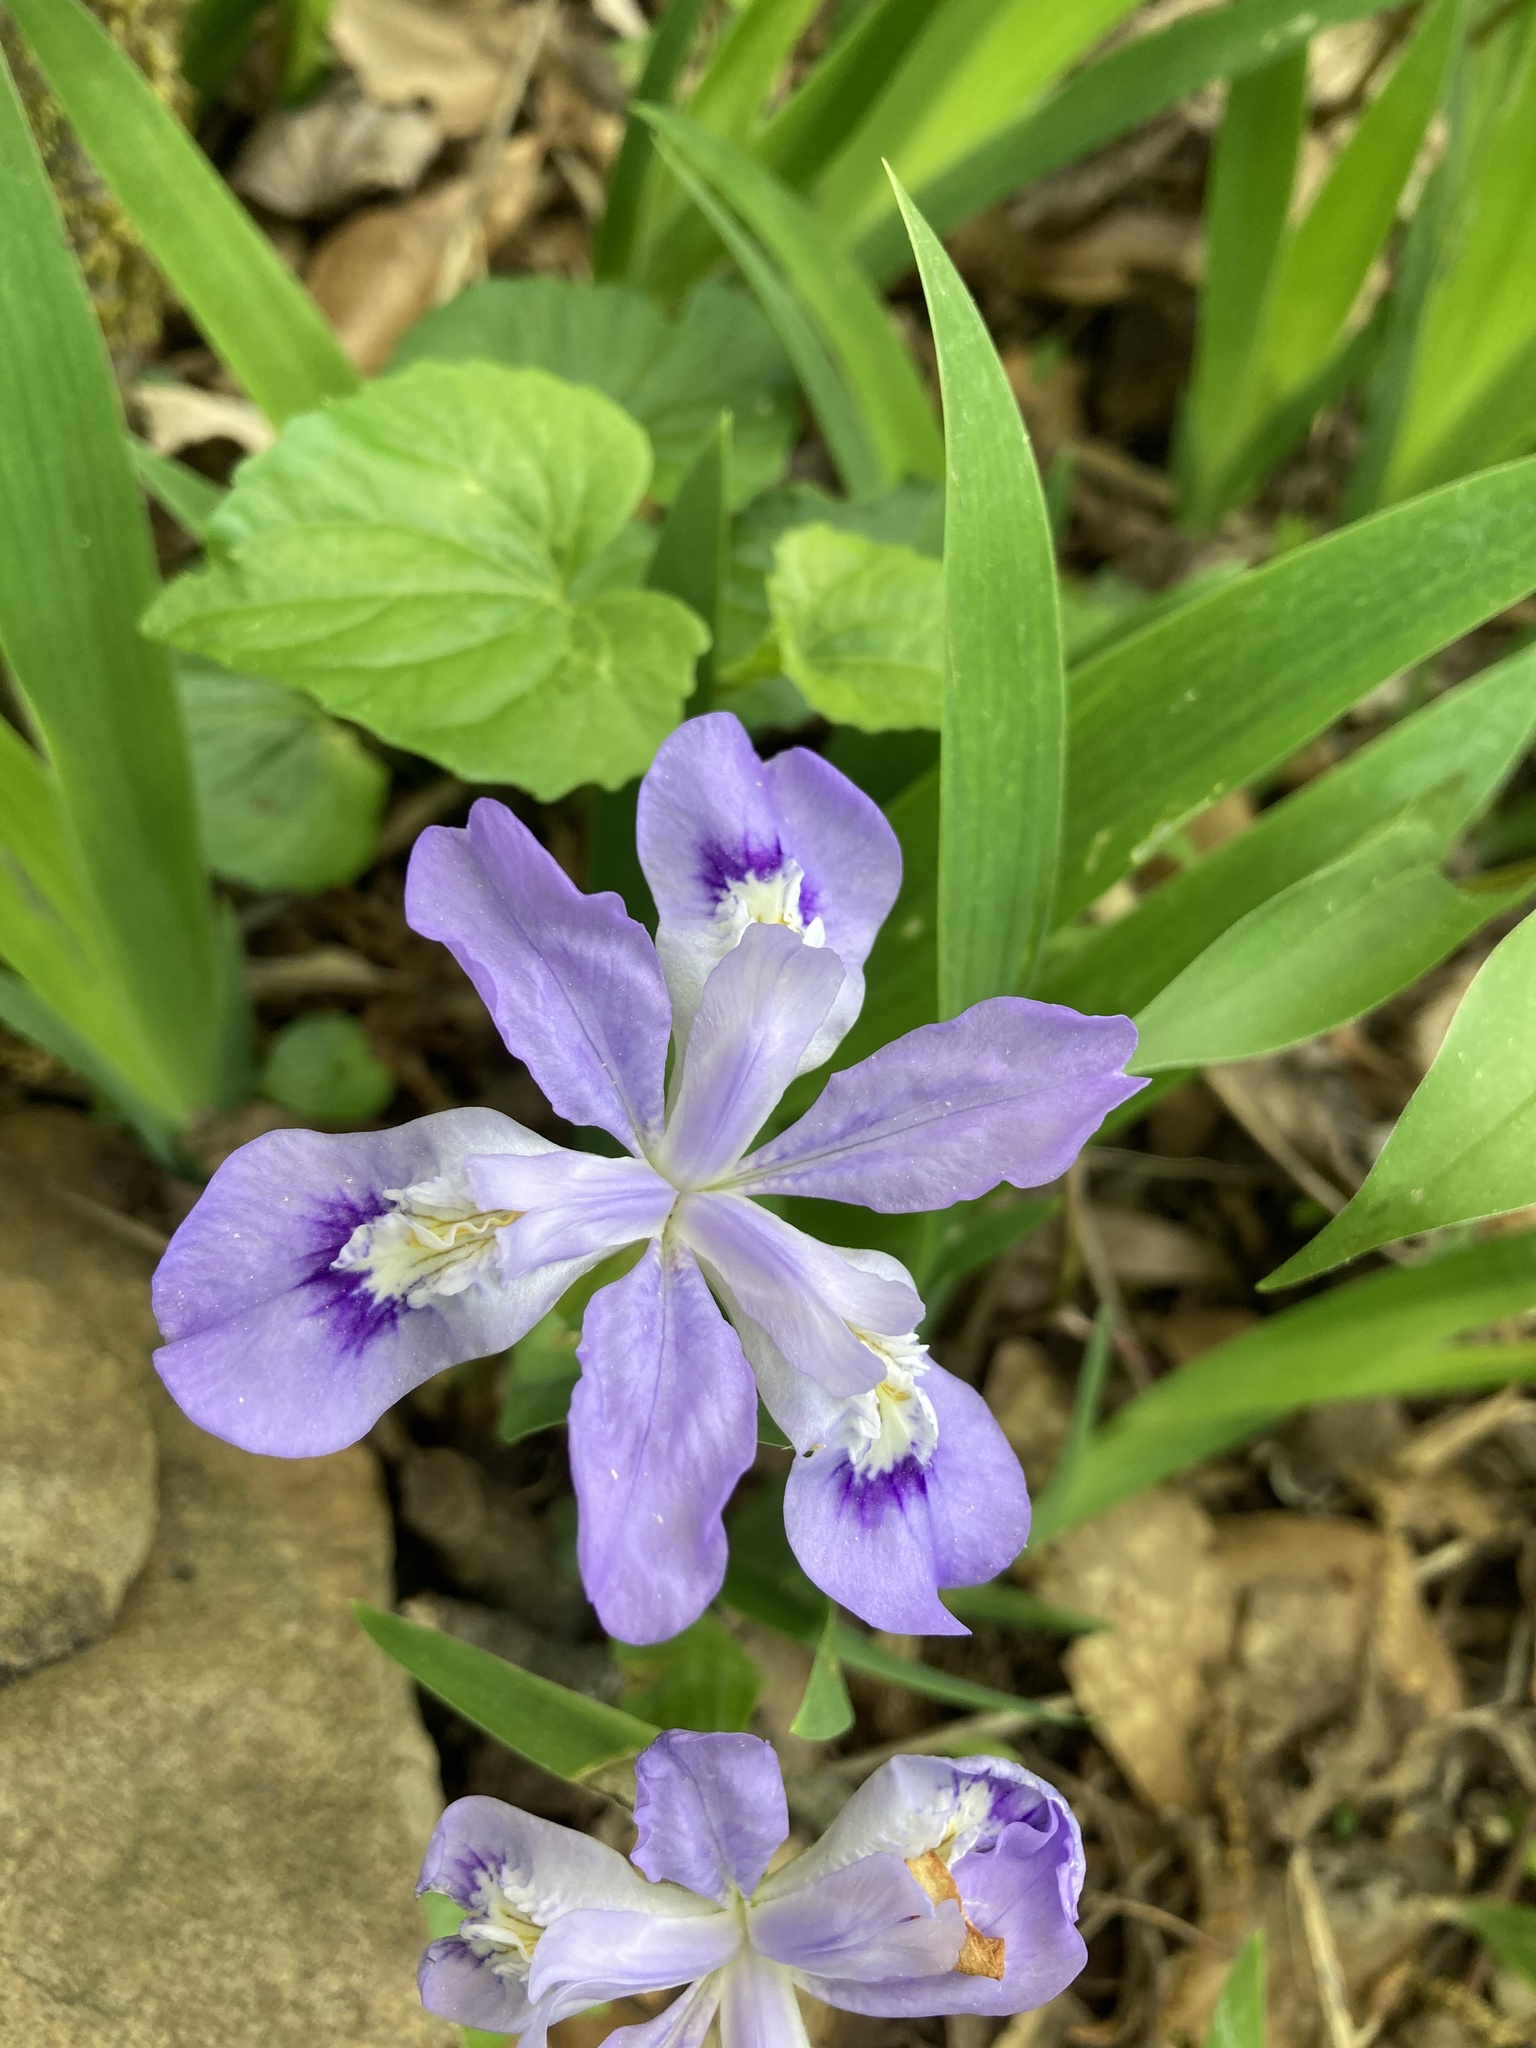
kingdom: Plantae
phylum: Tracheophyta
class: Liliopsida
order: Asparagales
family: Iridaceae
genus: Iris
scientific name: Iris cristata
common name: Crested iris
